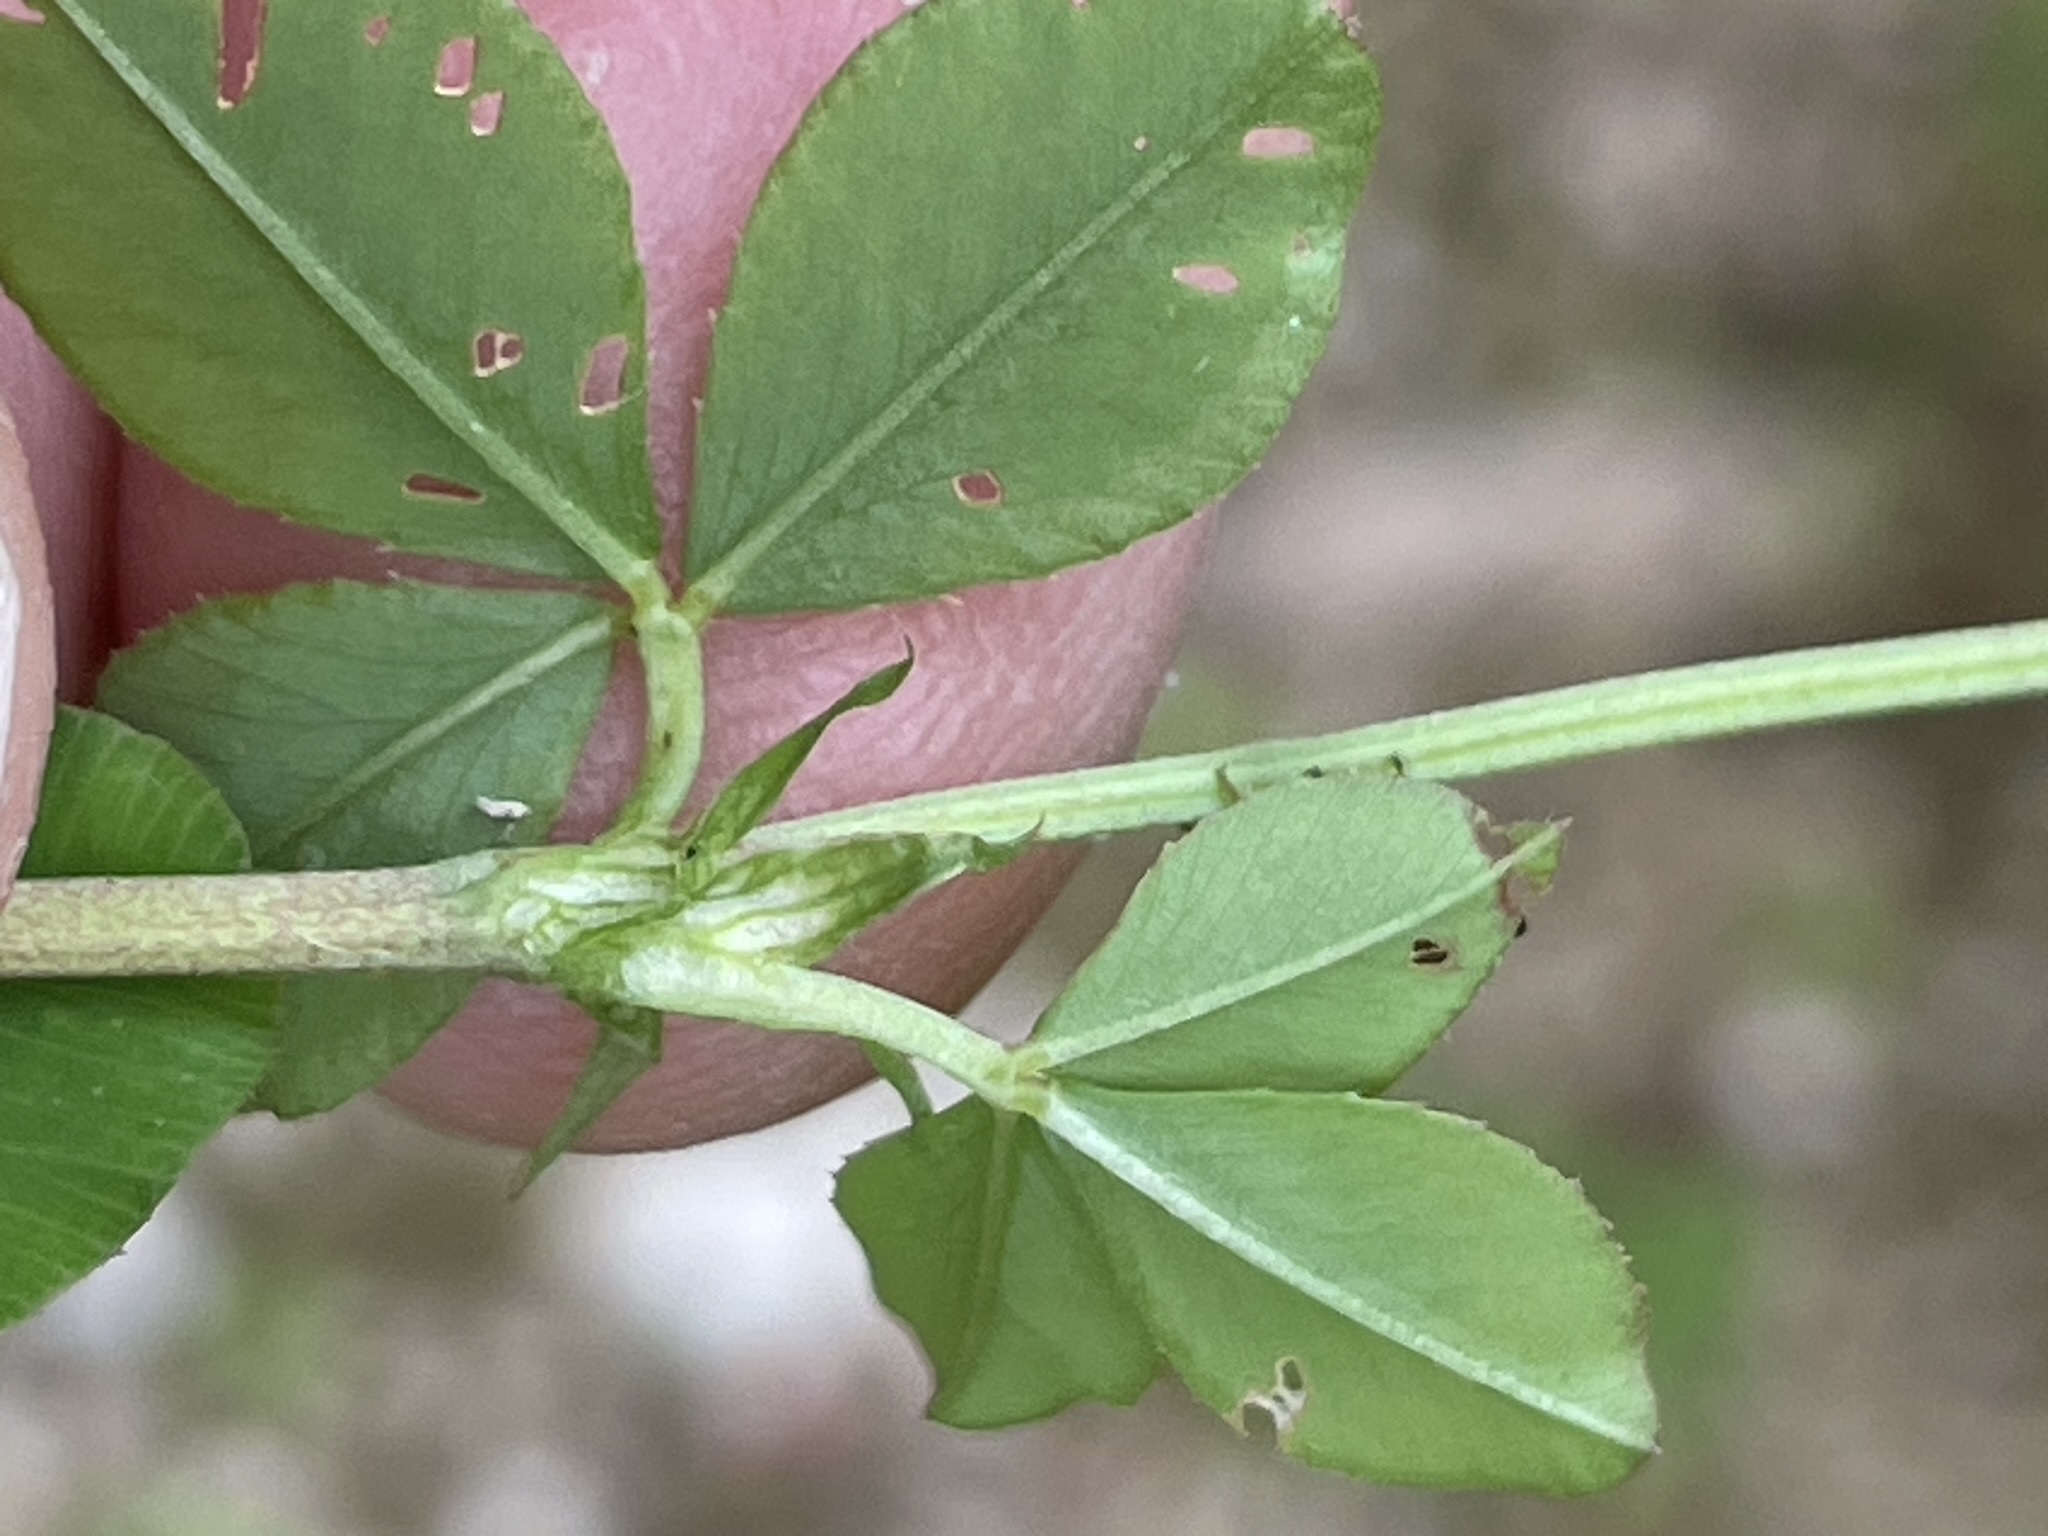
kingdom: Plantae
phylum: Tracheophyta
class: Magnoliopsida
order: Fabales
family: Fabaceae
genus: Trifolium
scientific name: Trifolium hybridum
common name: Alsike clover
